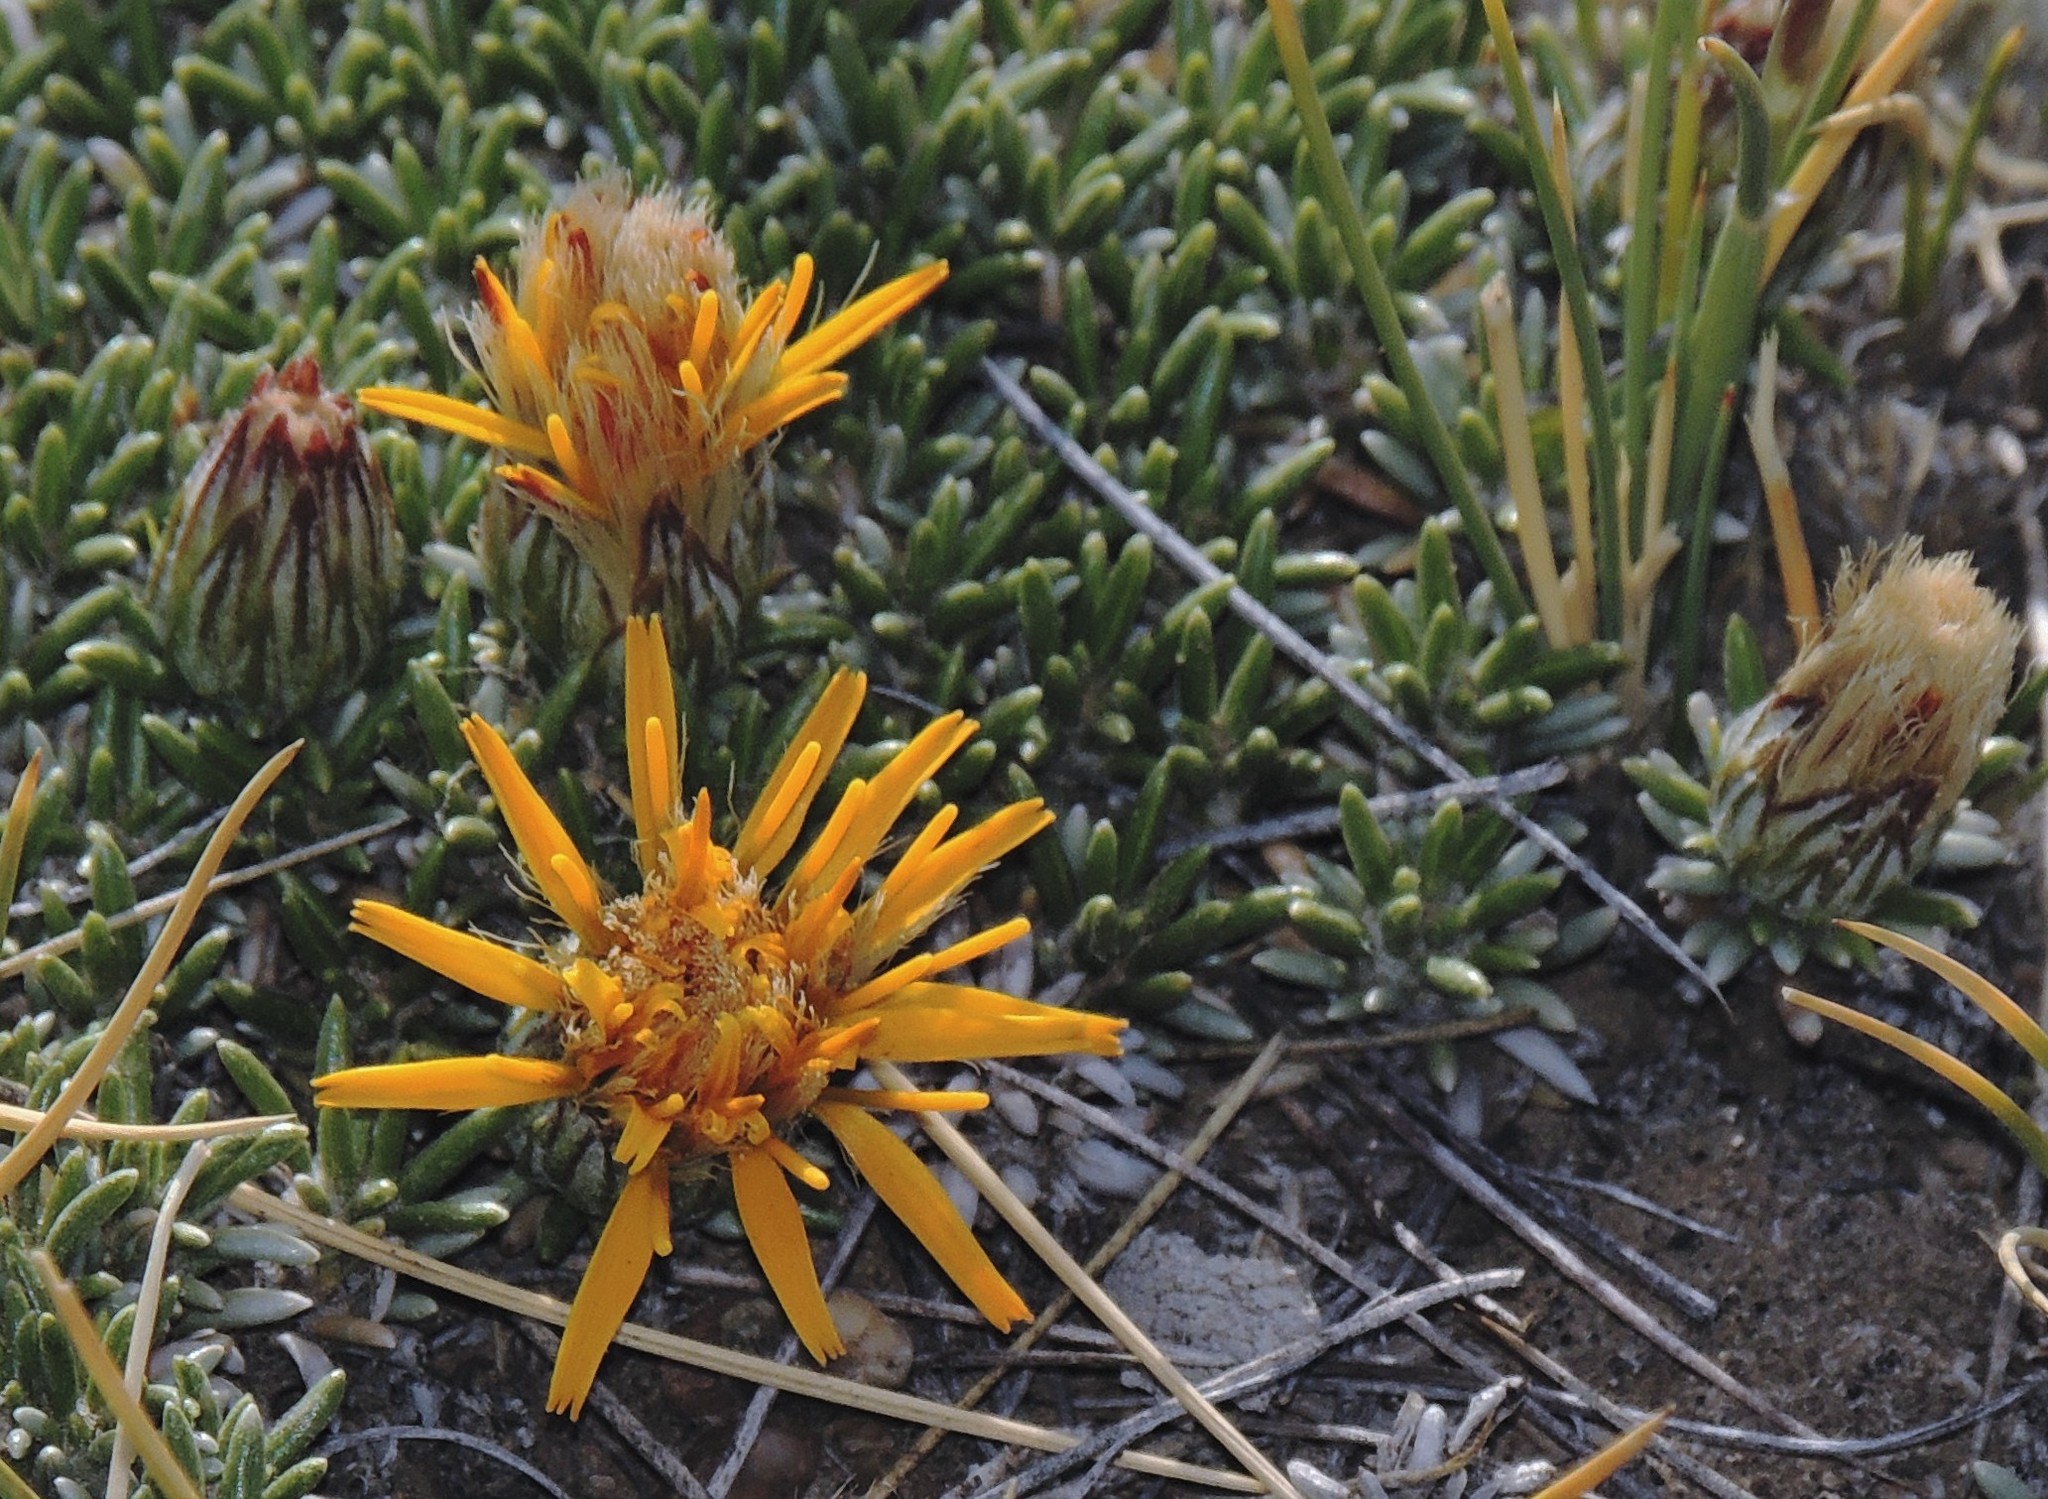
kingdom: Plantae
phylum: Tracheophyta
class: Magnoliopsida
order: Asterales
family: Asteraceae
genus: Brachyclados
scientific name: Brachyclados caespitosus
